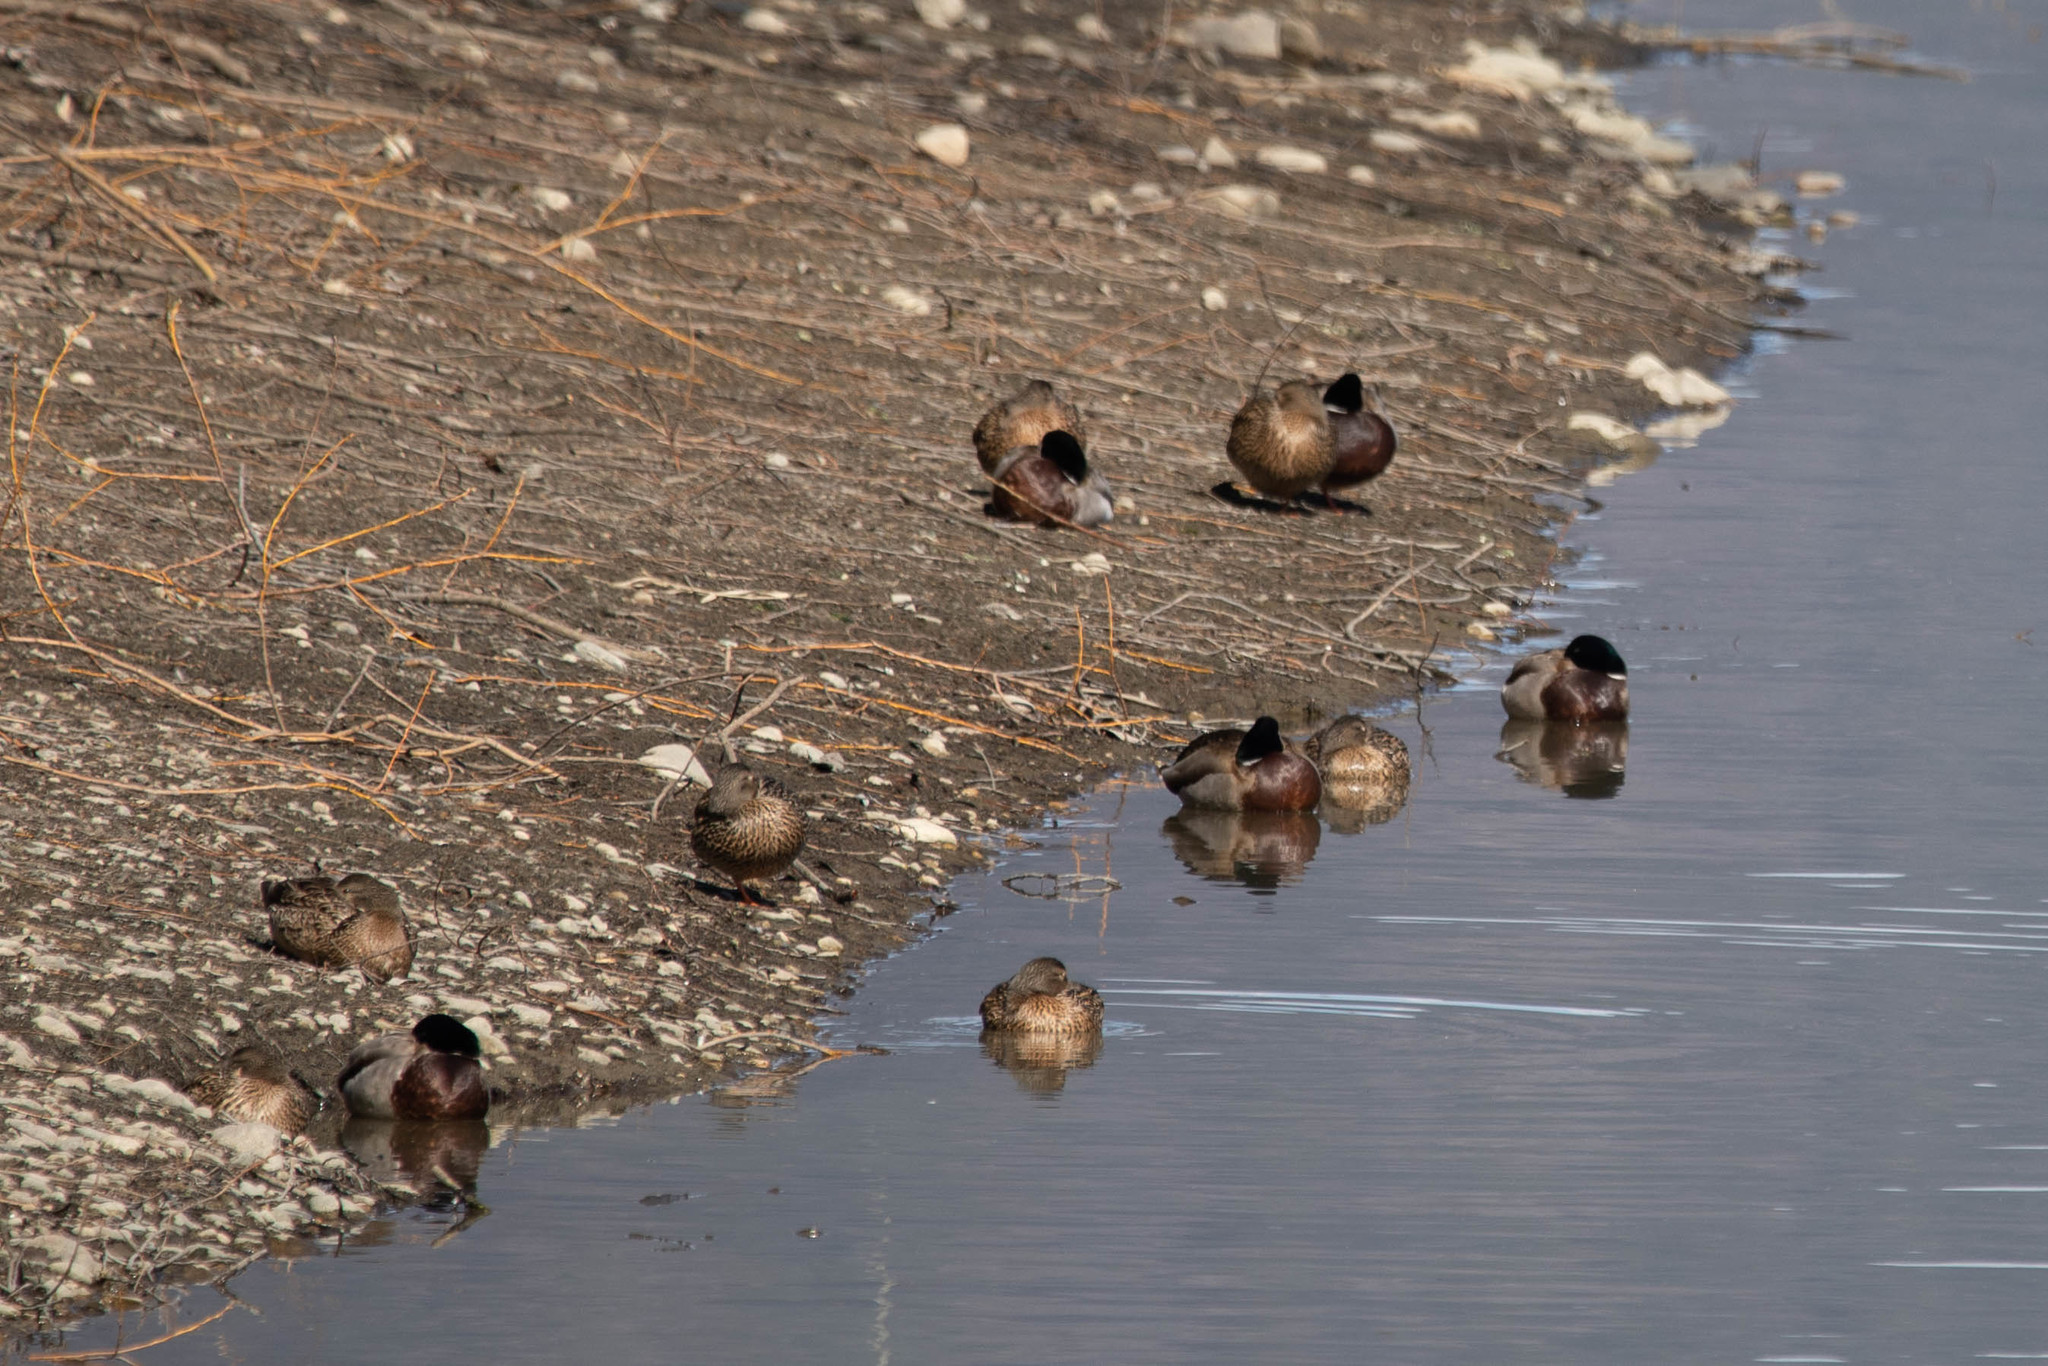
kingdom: Animalia
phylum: Chordata
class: Aves
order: Anseriformes
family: Anatidae
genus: Anas
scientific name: Anas platyrhynchos
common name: Mallard
